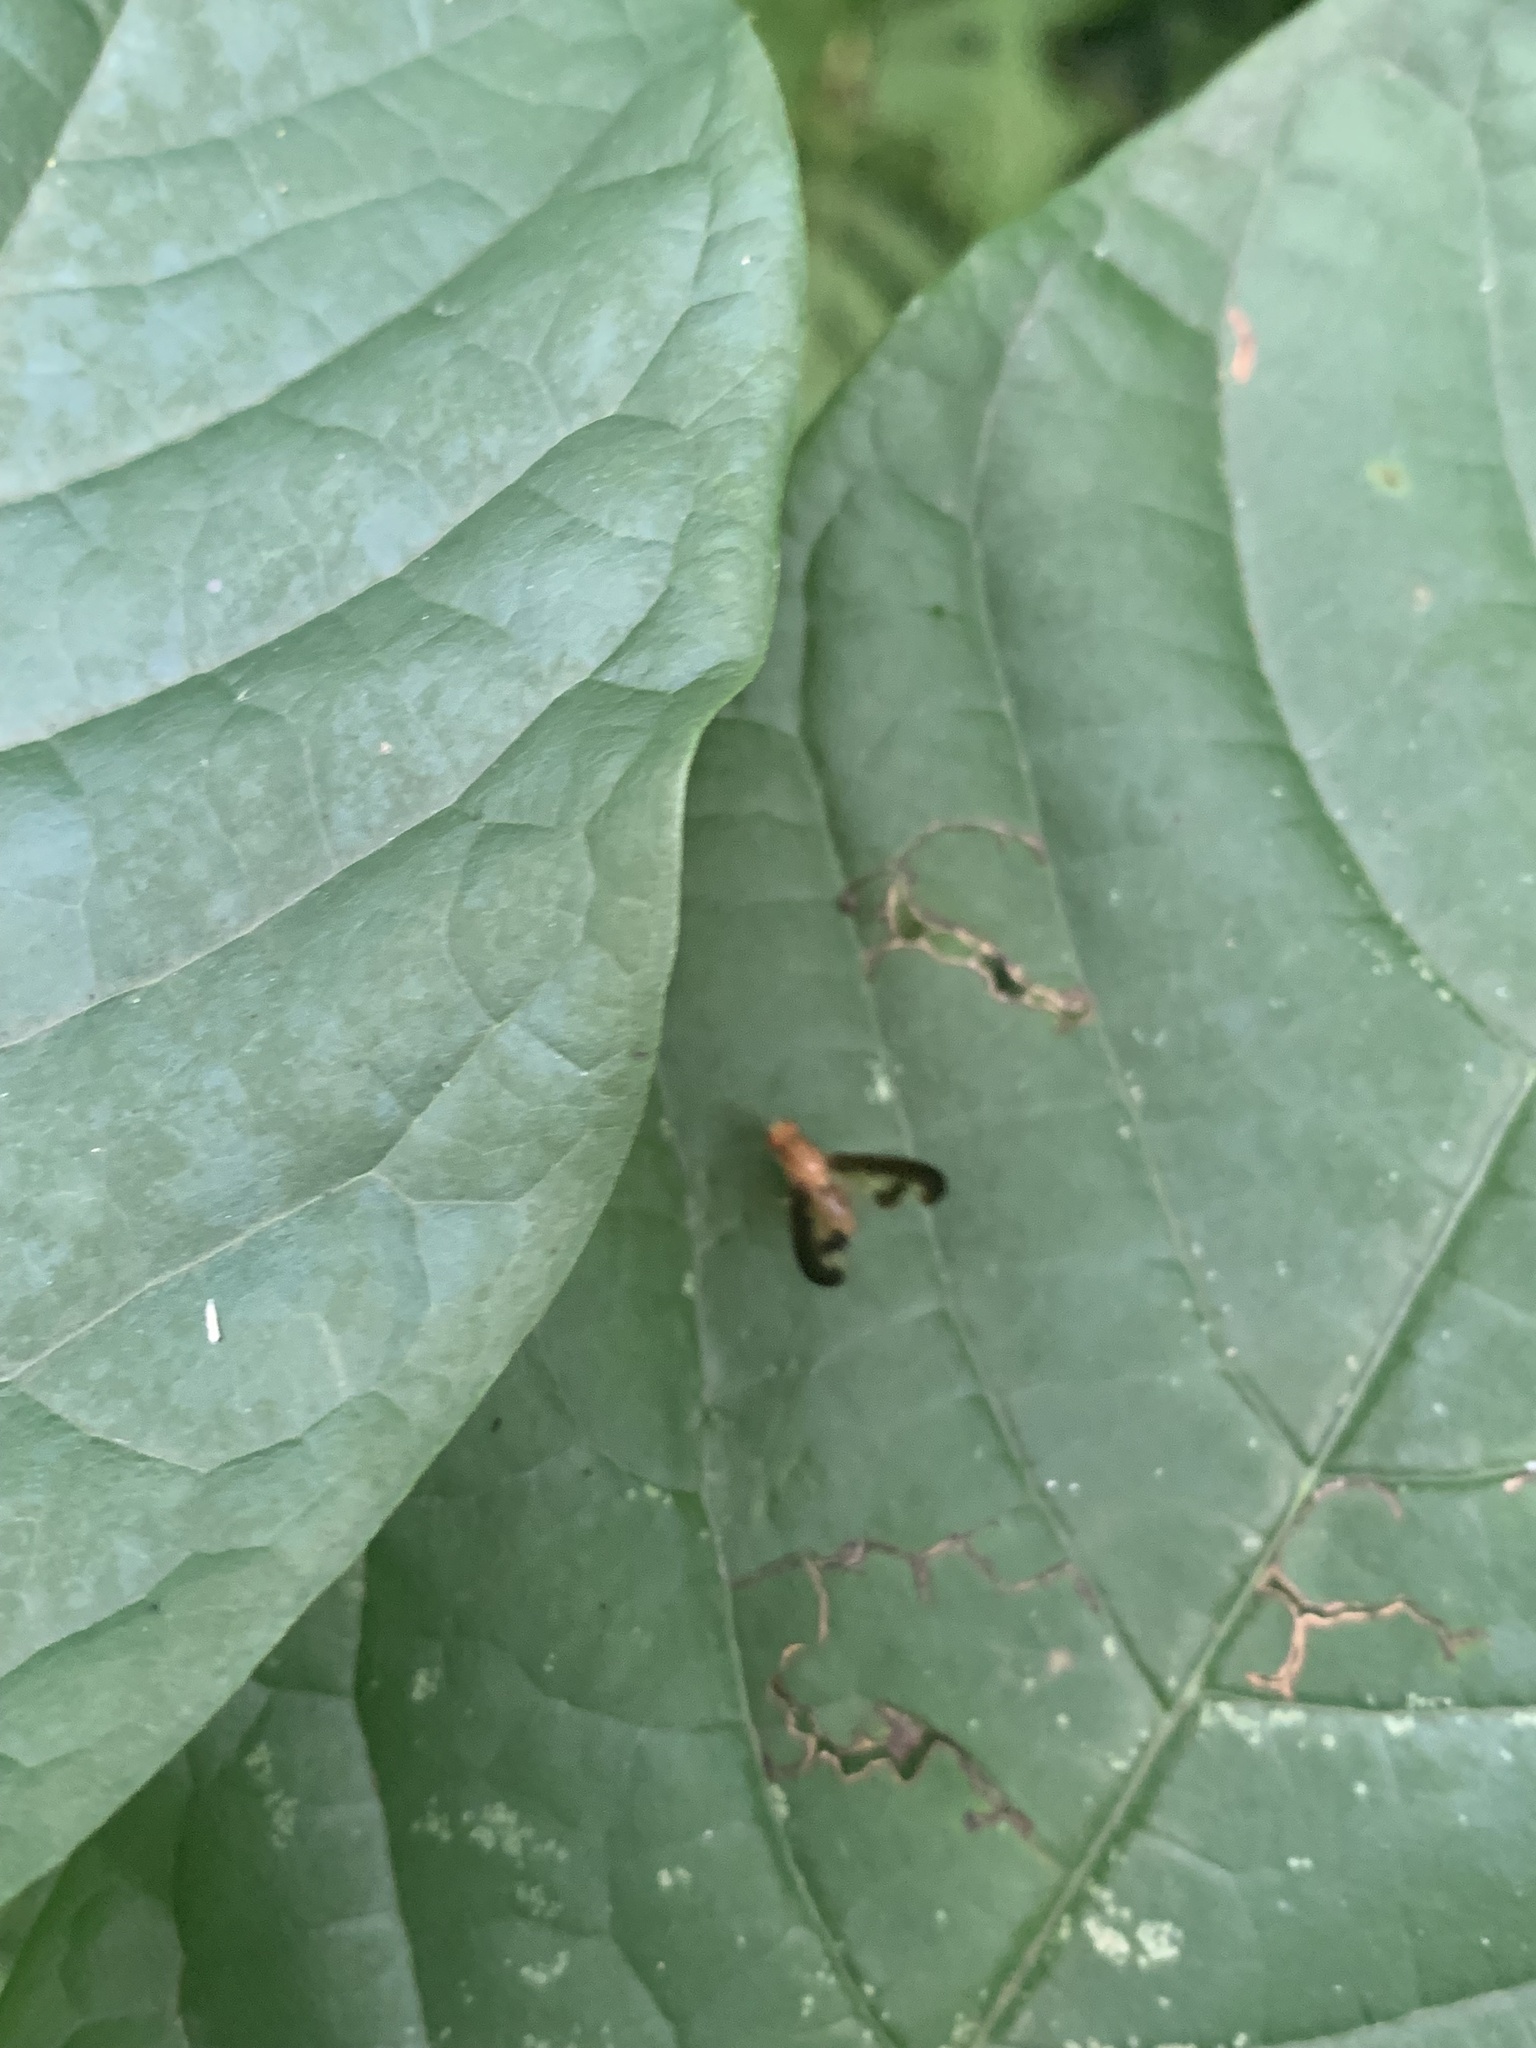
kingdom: Animalia
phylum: Arthropoda
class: Insecta
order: Diptera
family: Pallopteridae
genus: Toxonevra
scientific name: Toxonevra superba
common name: Antlered flutter fly
